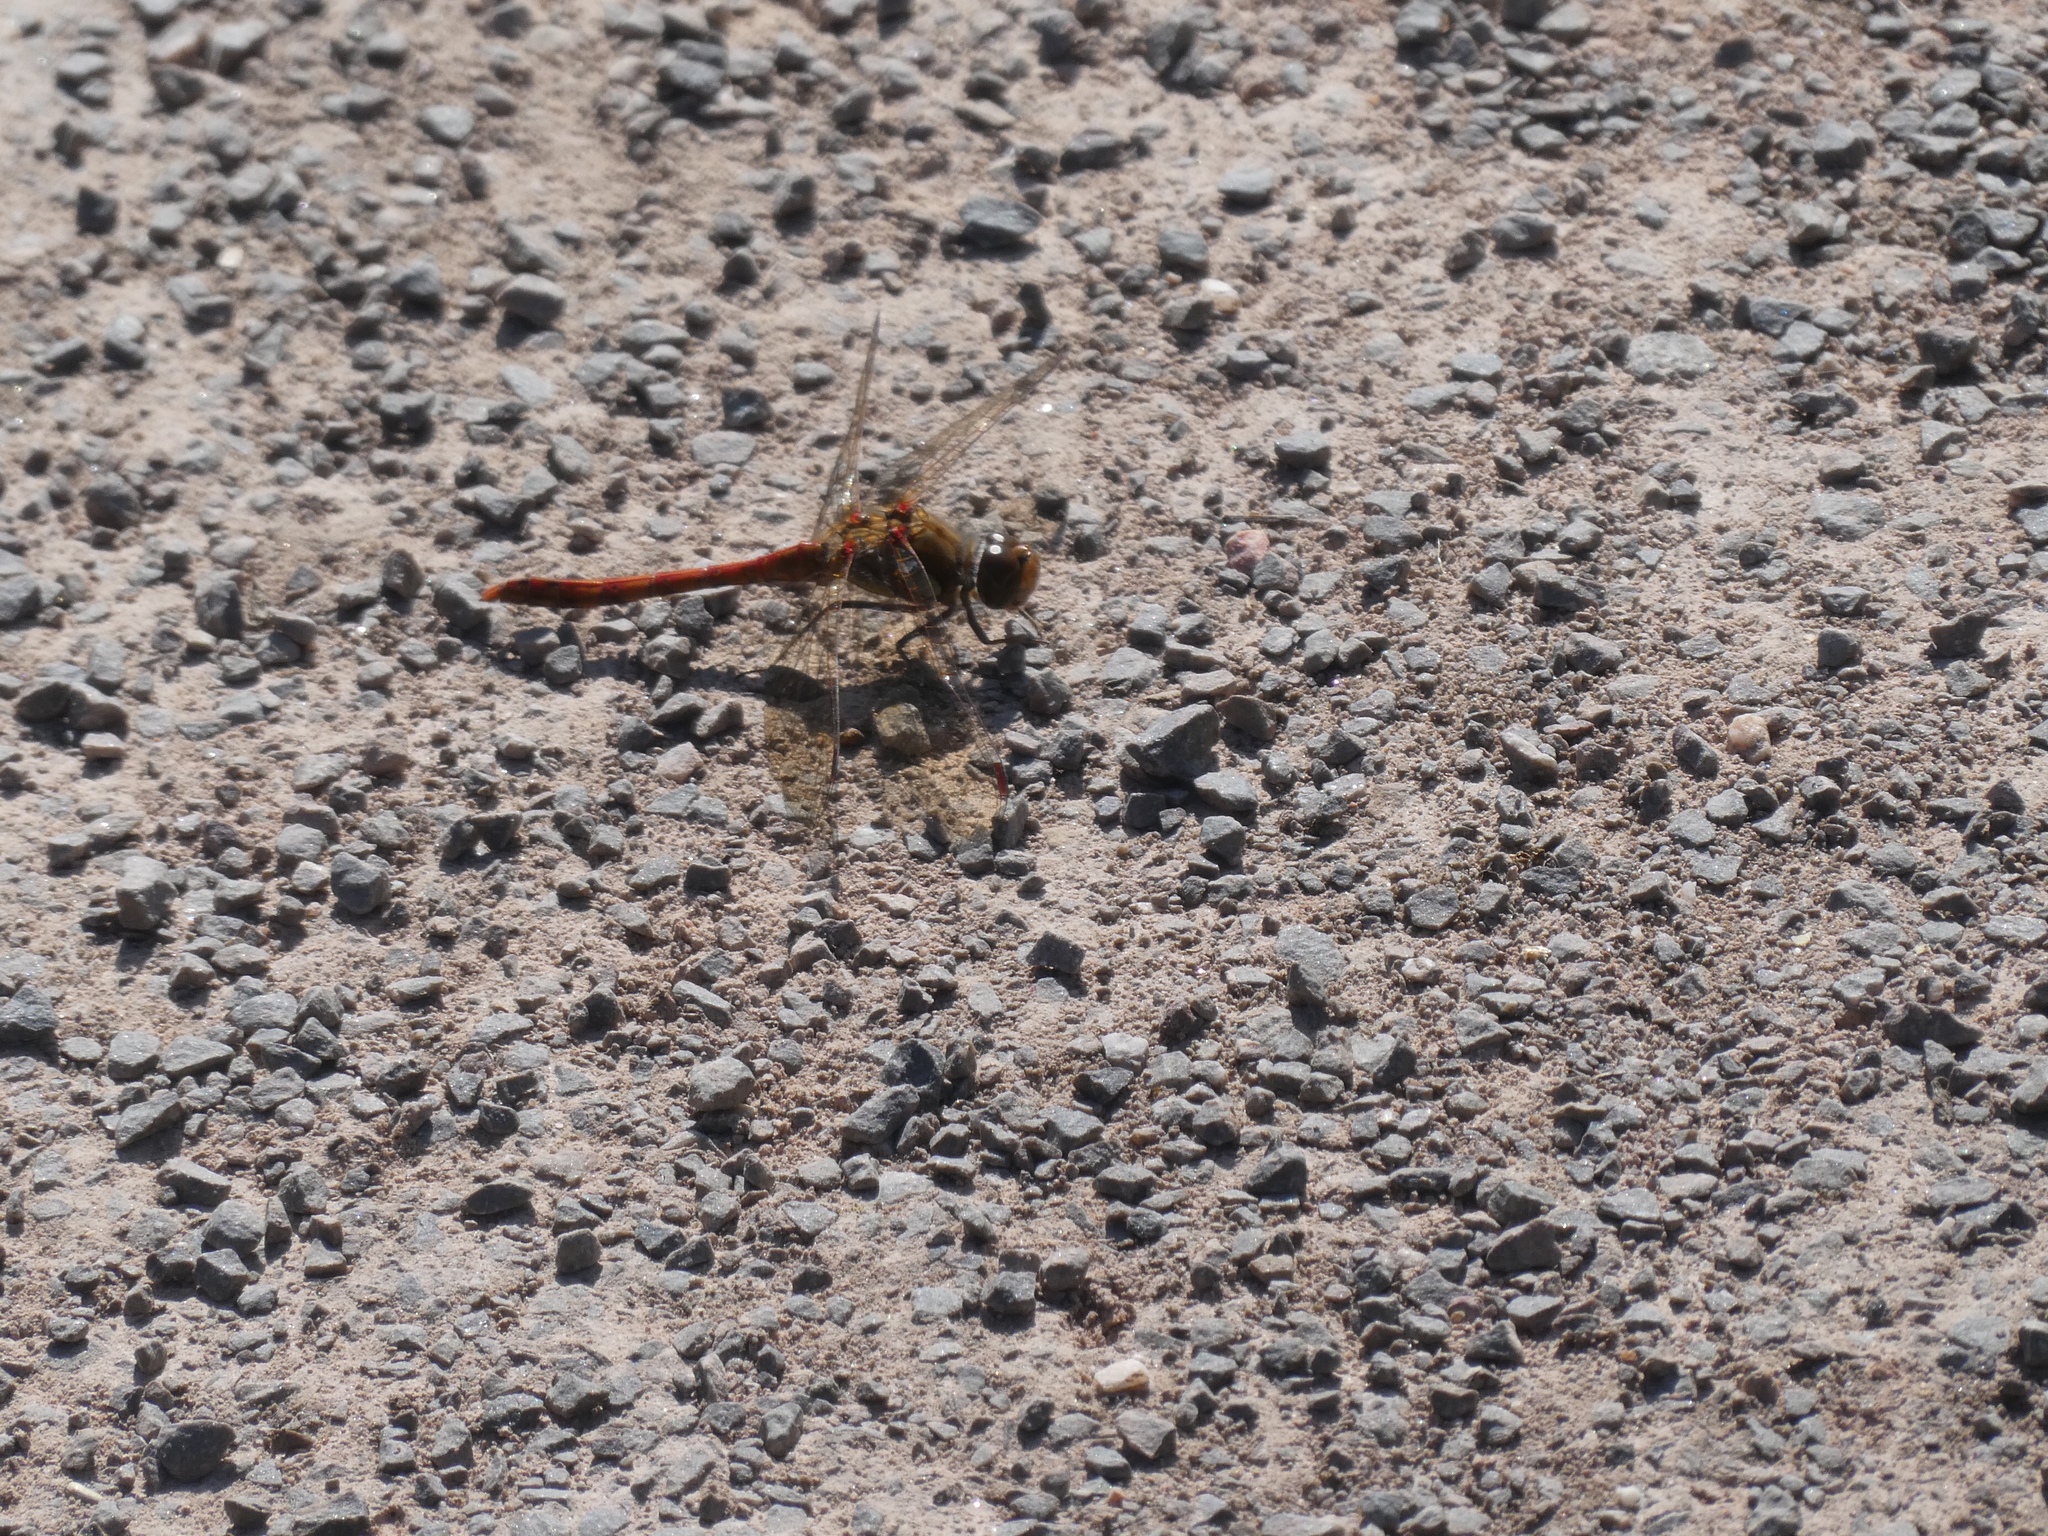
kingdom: Animalia
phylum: Arthropoda
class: Insecta
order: Odonata
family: Libellulidae
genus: Sympetrum
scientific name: Sympetrum striolatum
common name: Common darter
